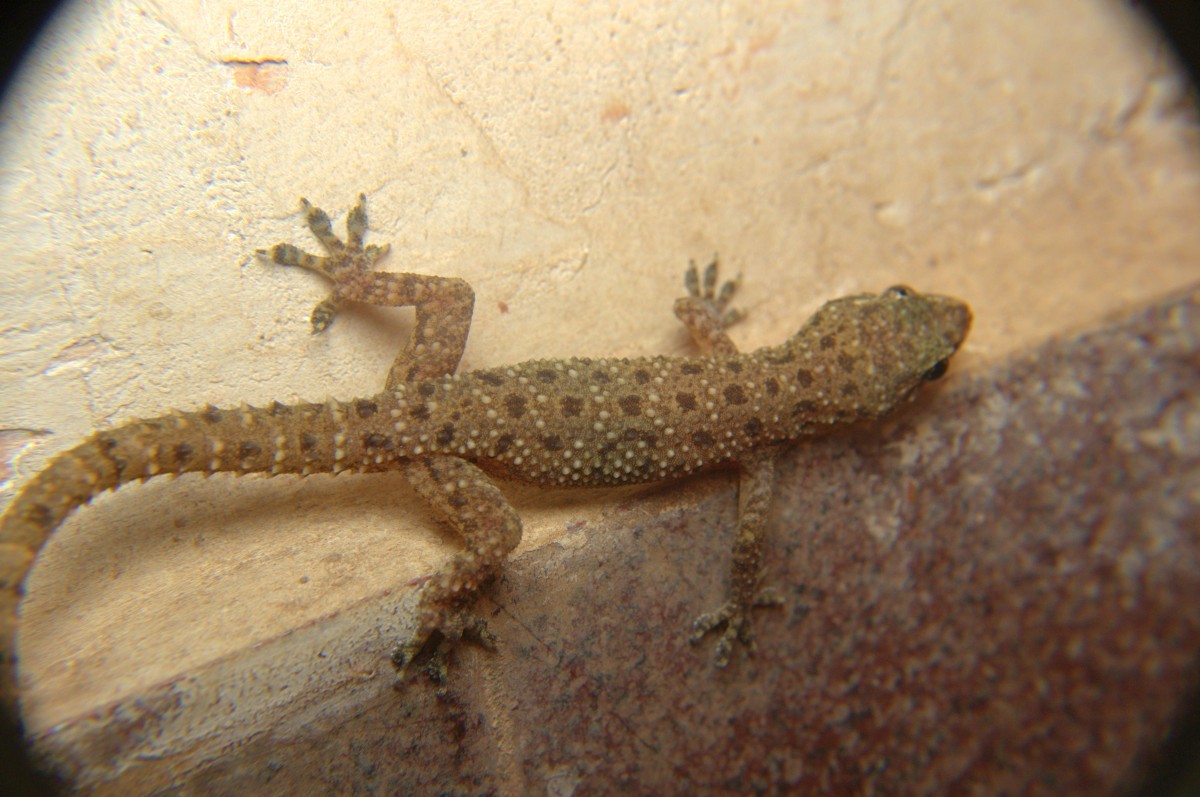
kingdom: Animalia
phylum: Chordata
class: Squamata
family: Gekkonidae
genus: Hemidactylus
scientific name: Hemidactylus parvimaculatus
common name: Spotted house gecko
